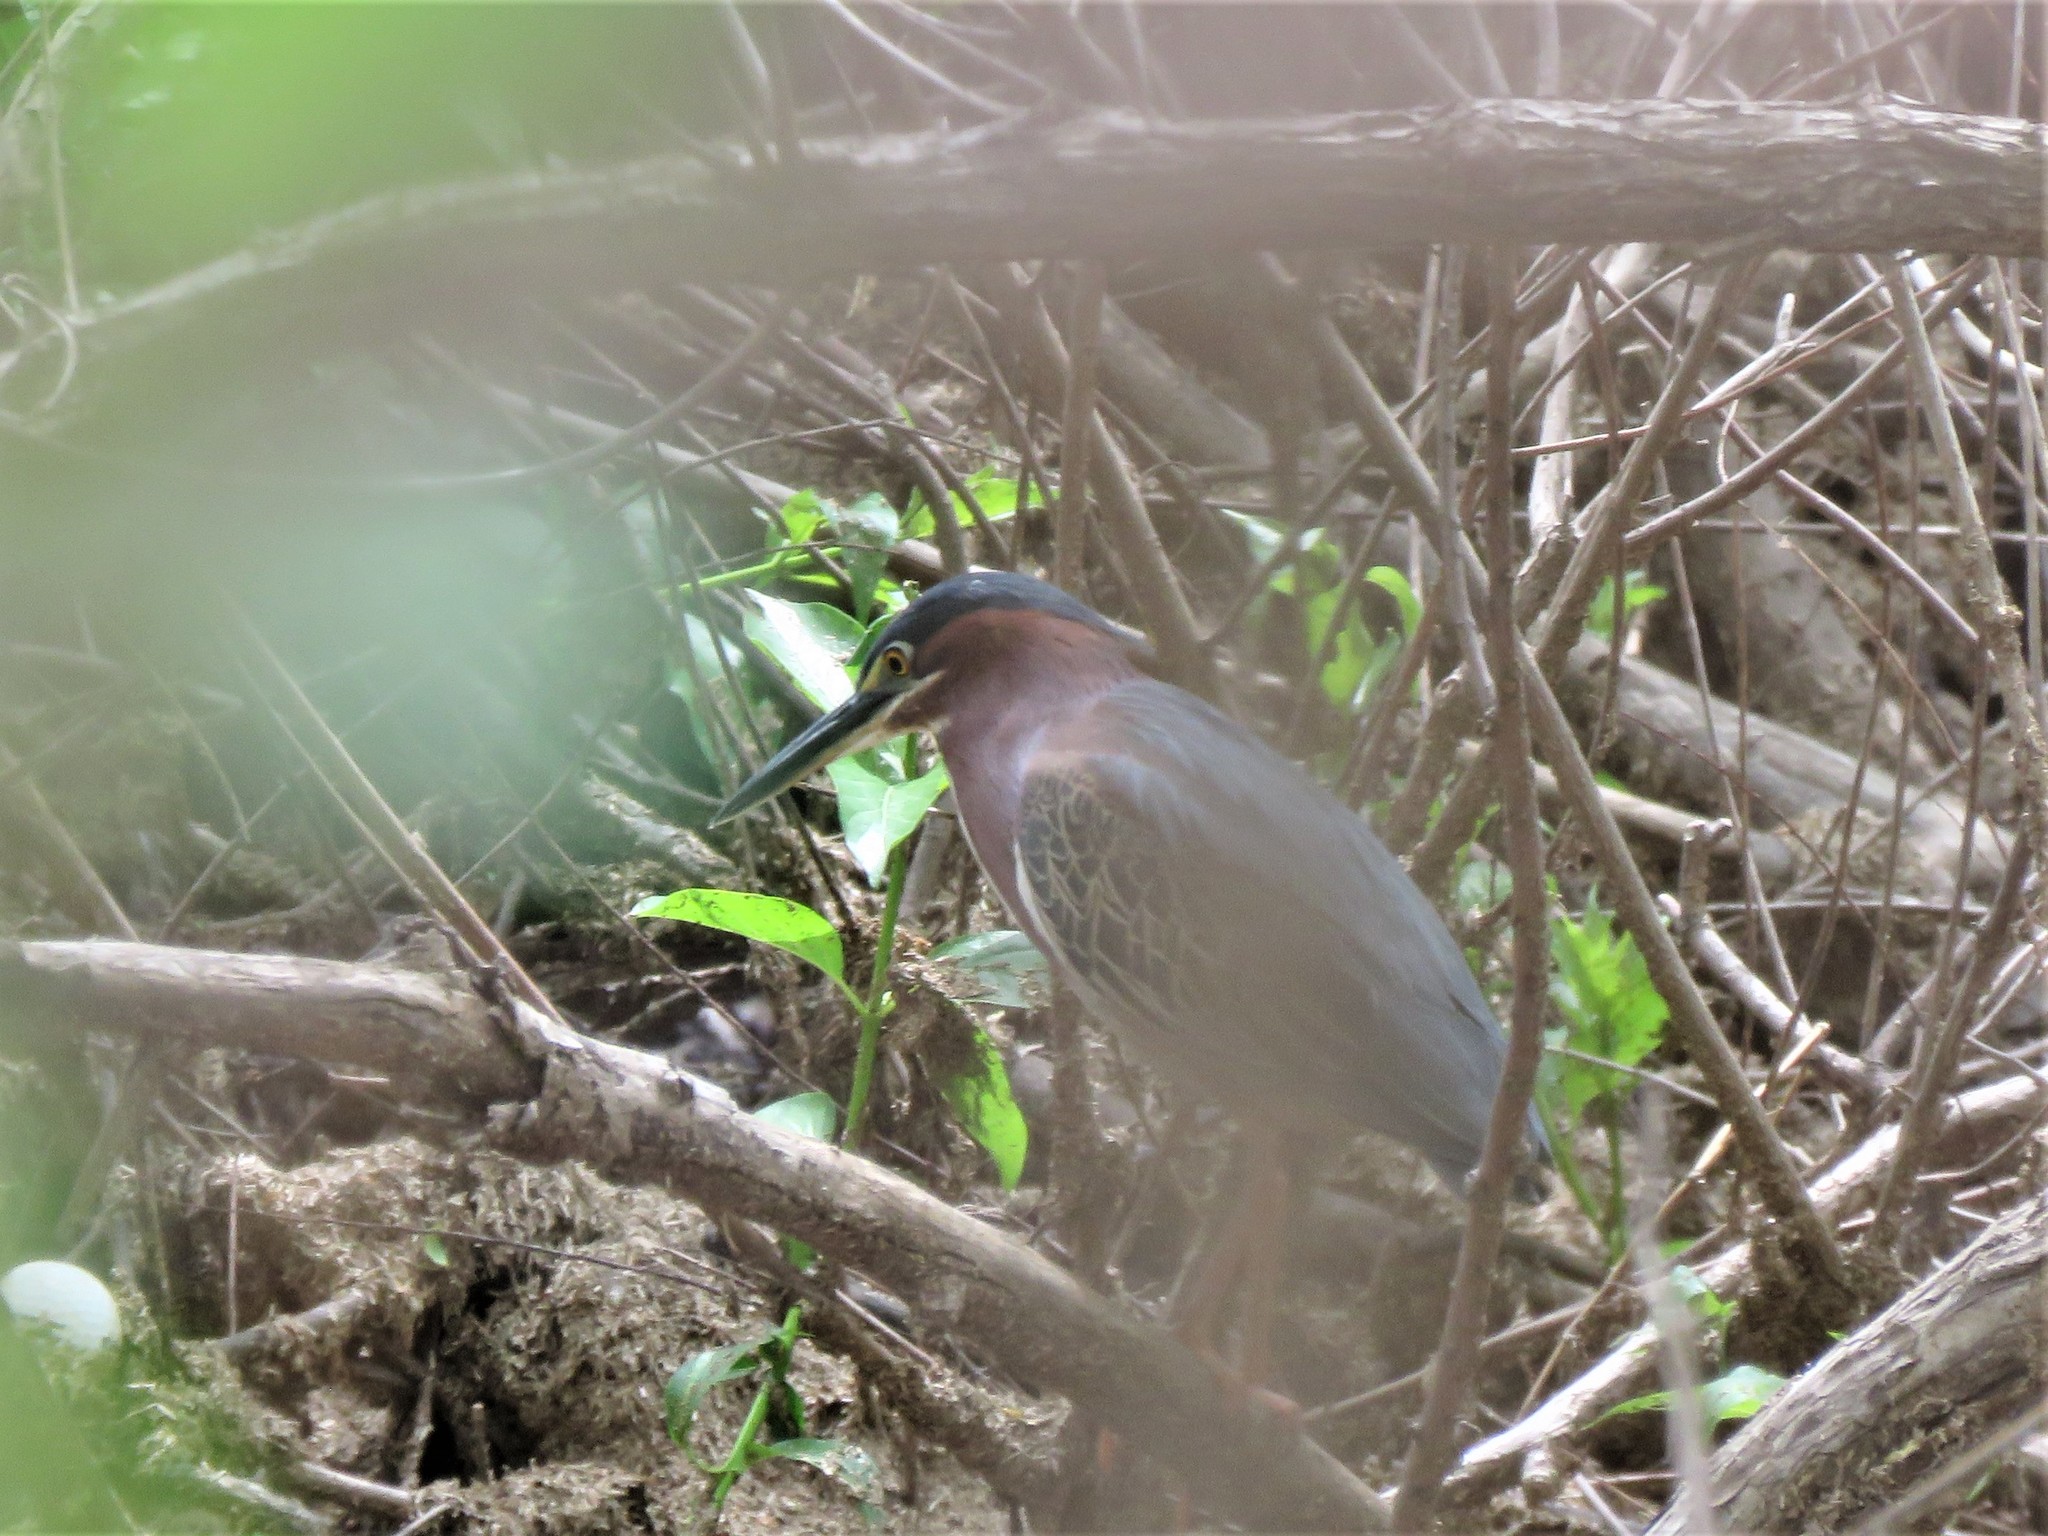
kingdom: Animalia
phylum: Chordata
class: Aves
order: Pelecaniformes
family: Ardeidae
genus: Butorides
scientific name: Butorides virescens
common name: Green heron
